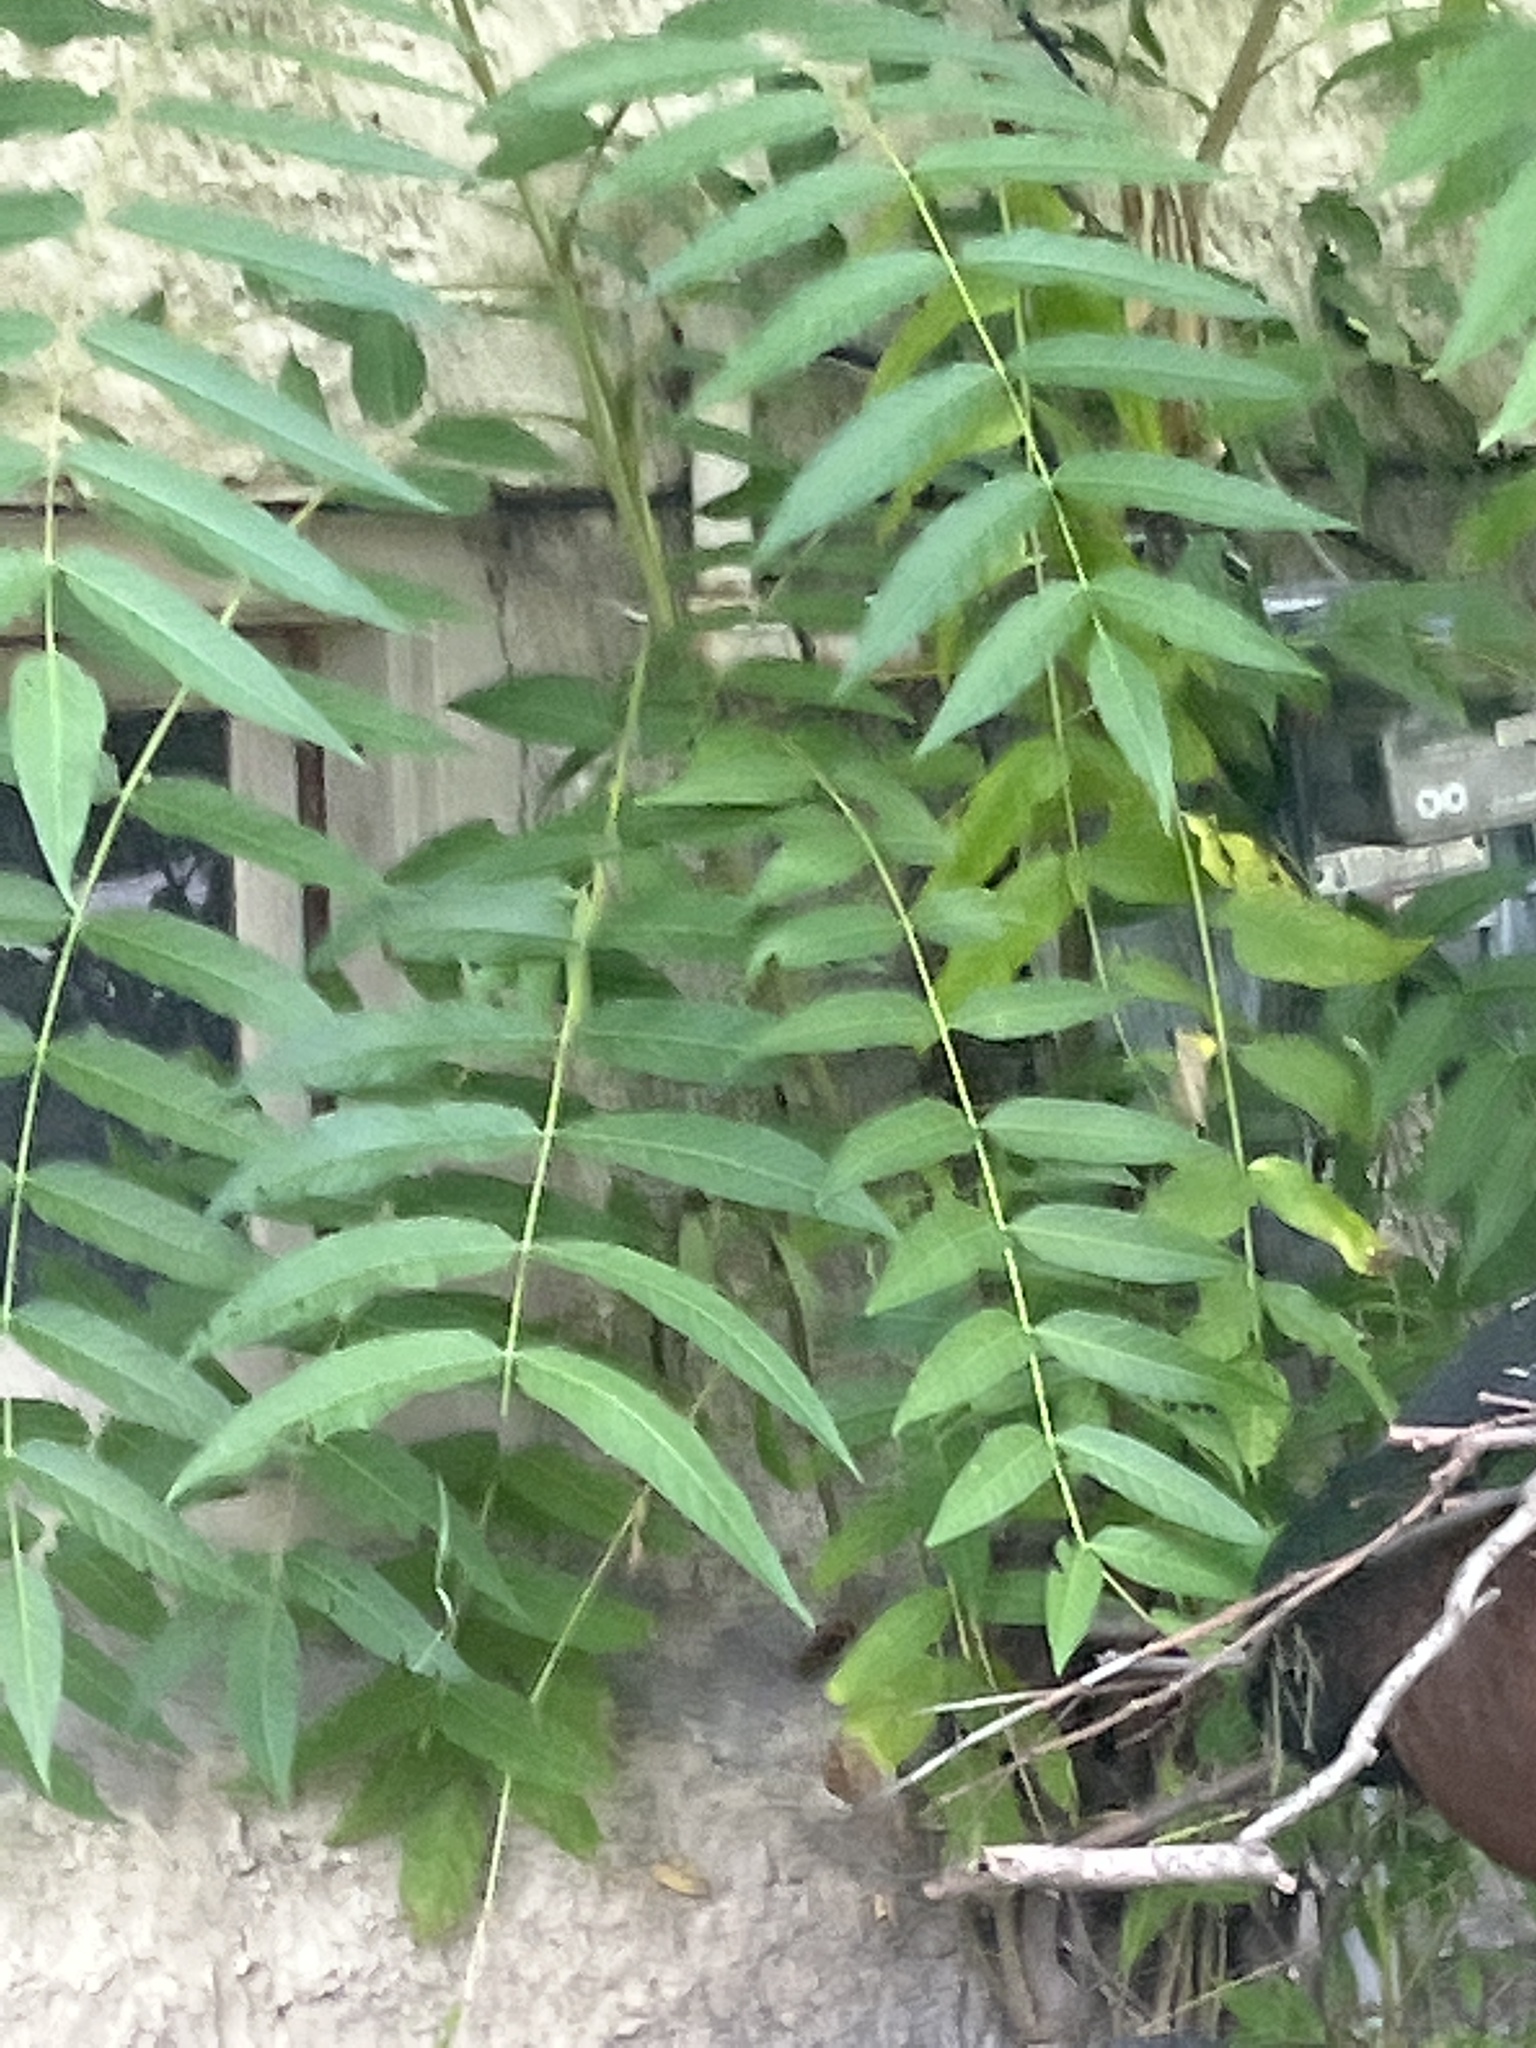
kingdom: Plantae
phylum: Tracheophyta
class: Magnoliopsida
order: Sapindales
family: Simaroubaceae
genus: Ailanthus
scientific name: Ailanthus altissima
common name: Tree-of-heaven
